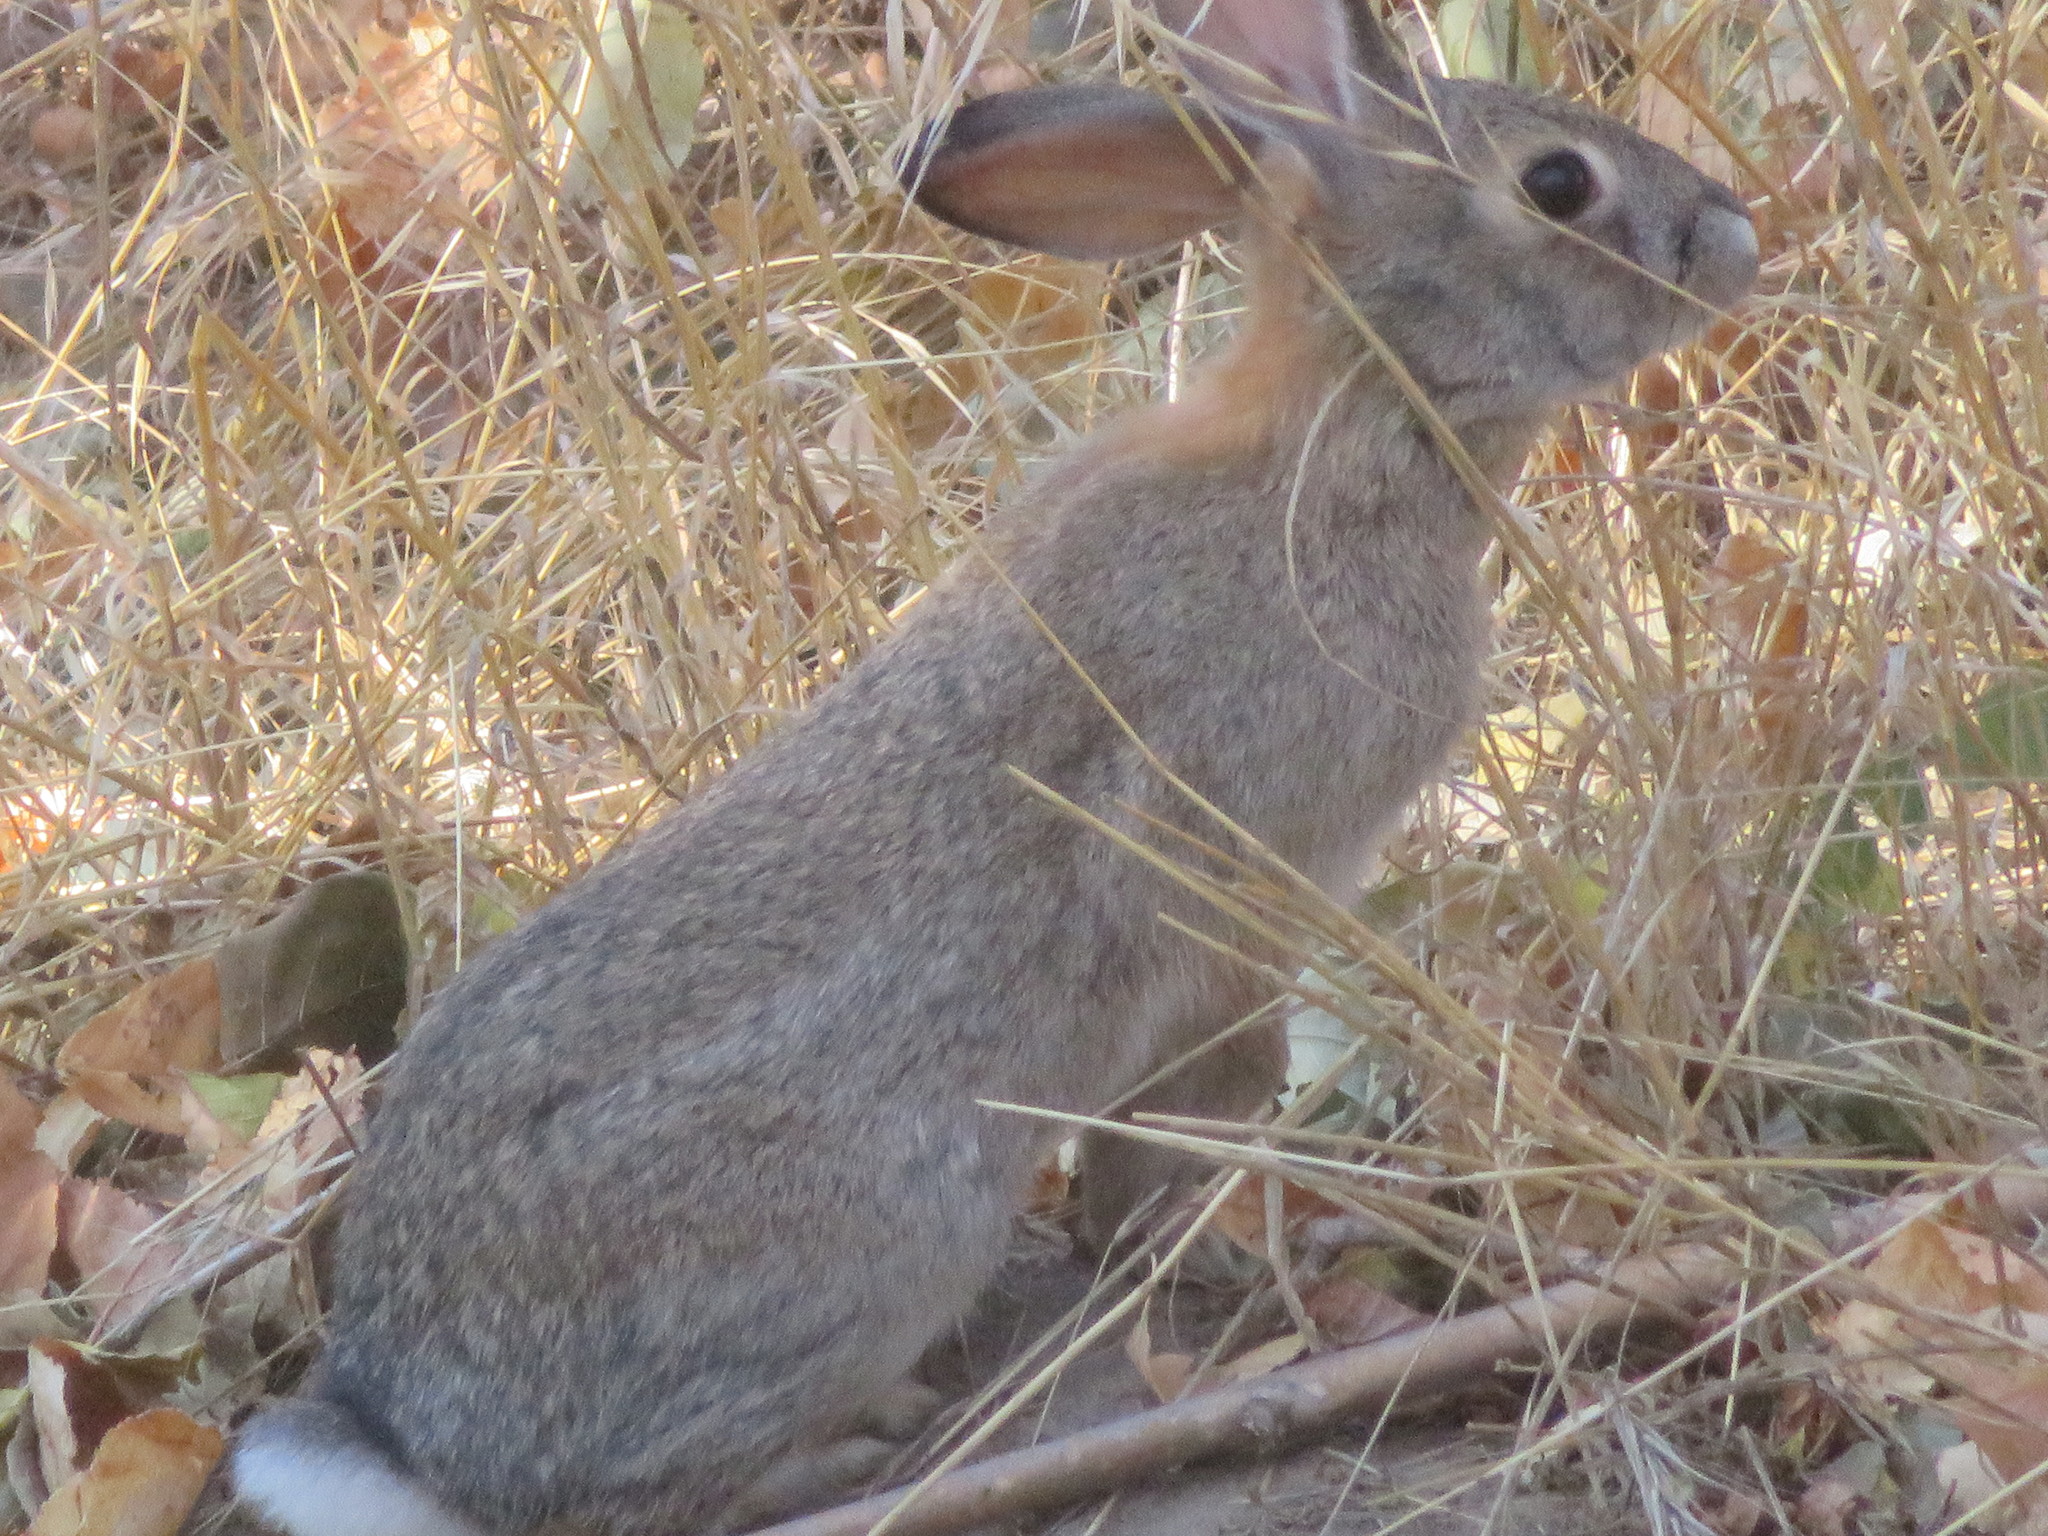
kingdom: Animalia
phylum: Chordata
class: Mammalia
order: Lagomorpha
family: Leporidae
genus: Sylvilagus
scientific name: Sylvilagus audubonii
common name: Desert cottontail
